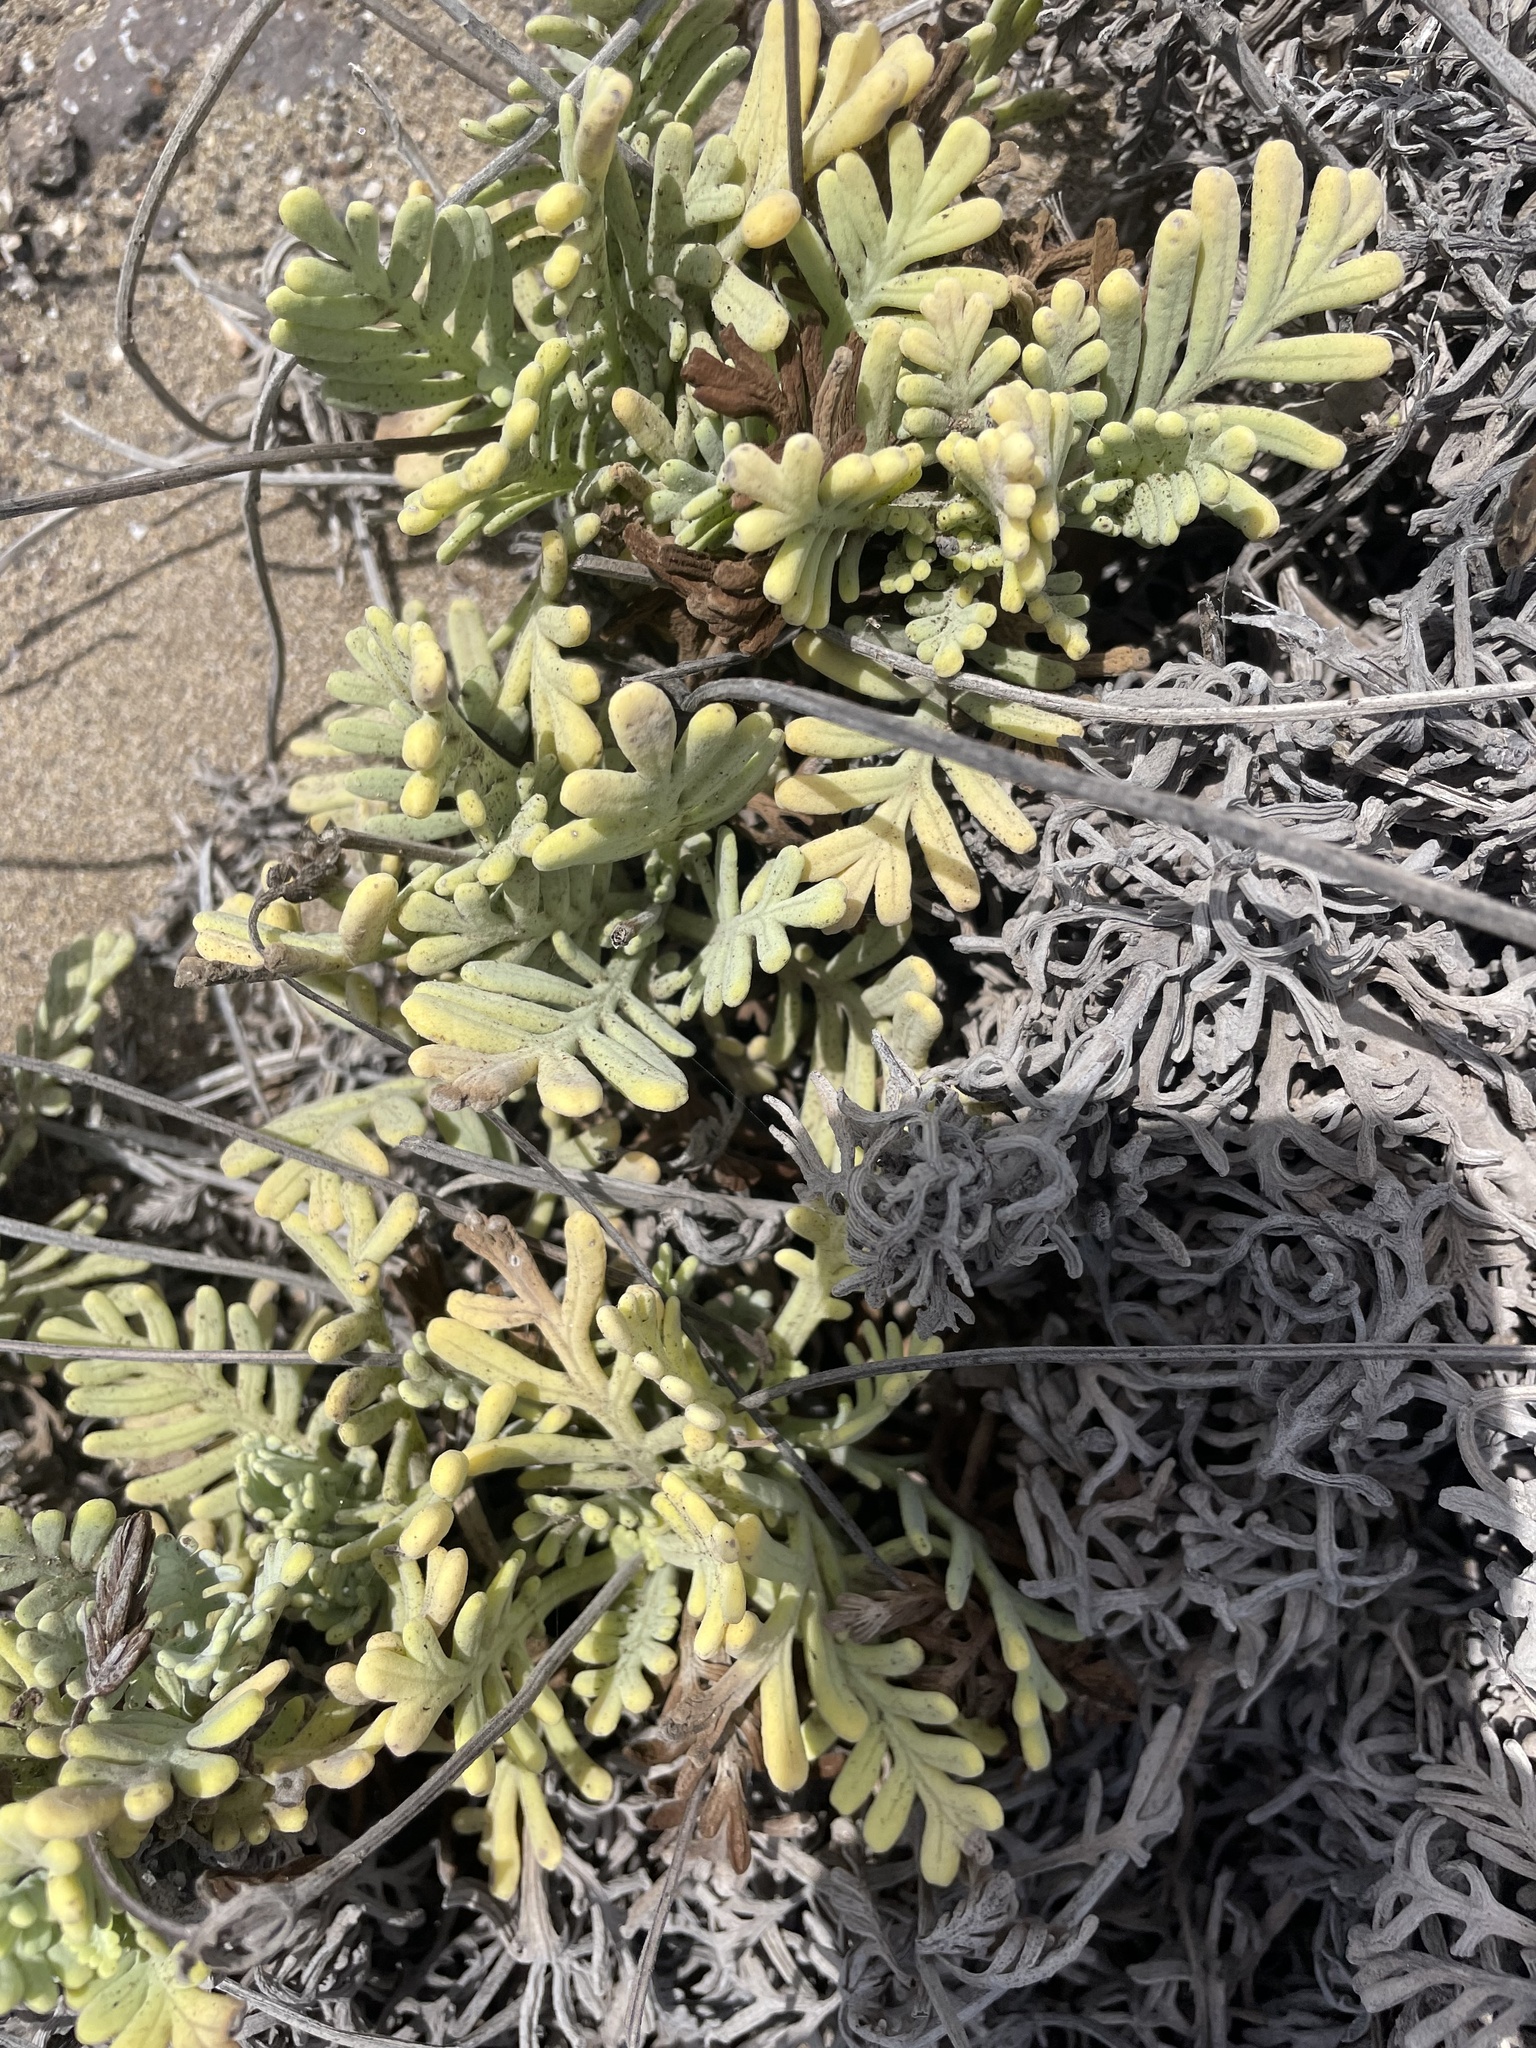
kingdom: Plantae
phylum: Tracheophyta
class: Magnoliopsida
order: Lamiales
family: Lamiaceae
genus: Lavandula
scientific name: Lavandula pinnata
